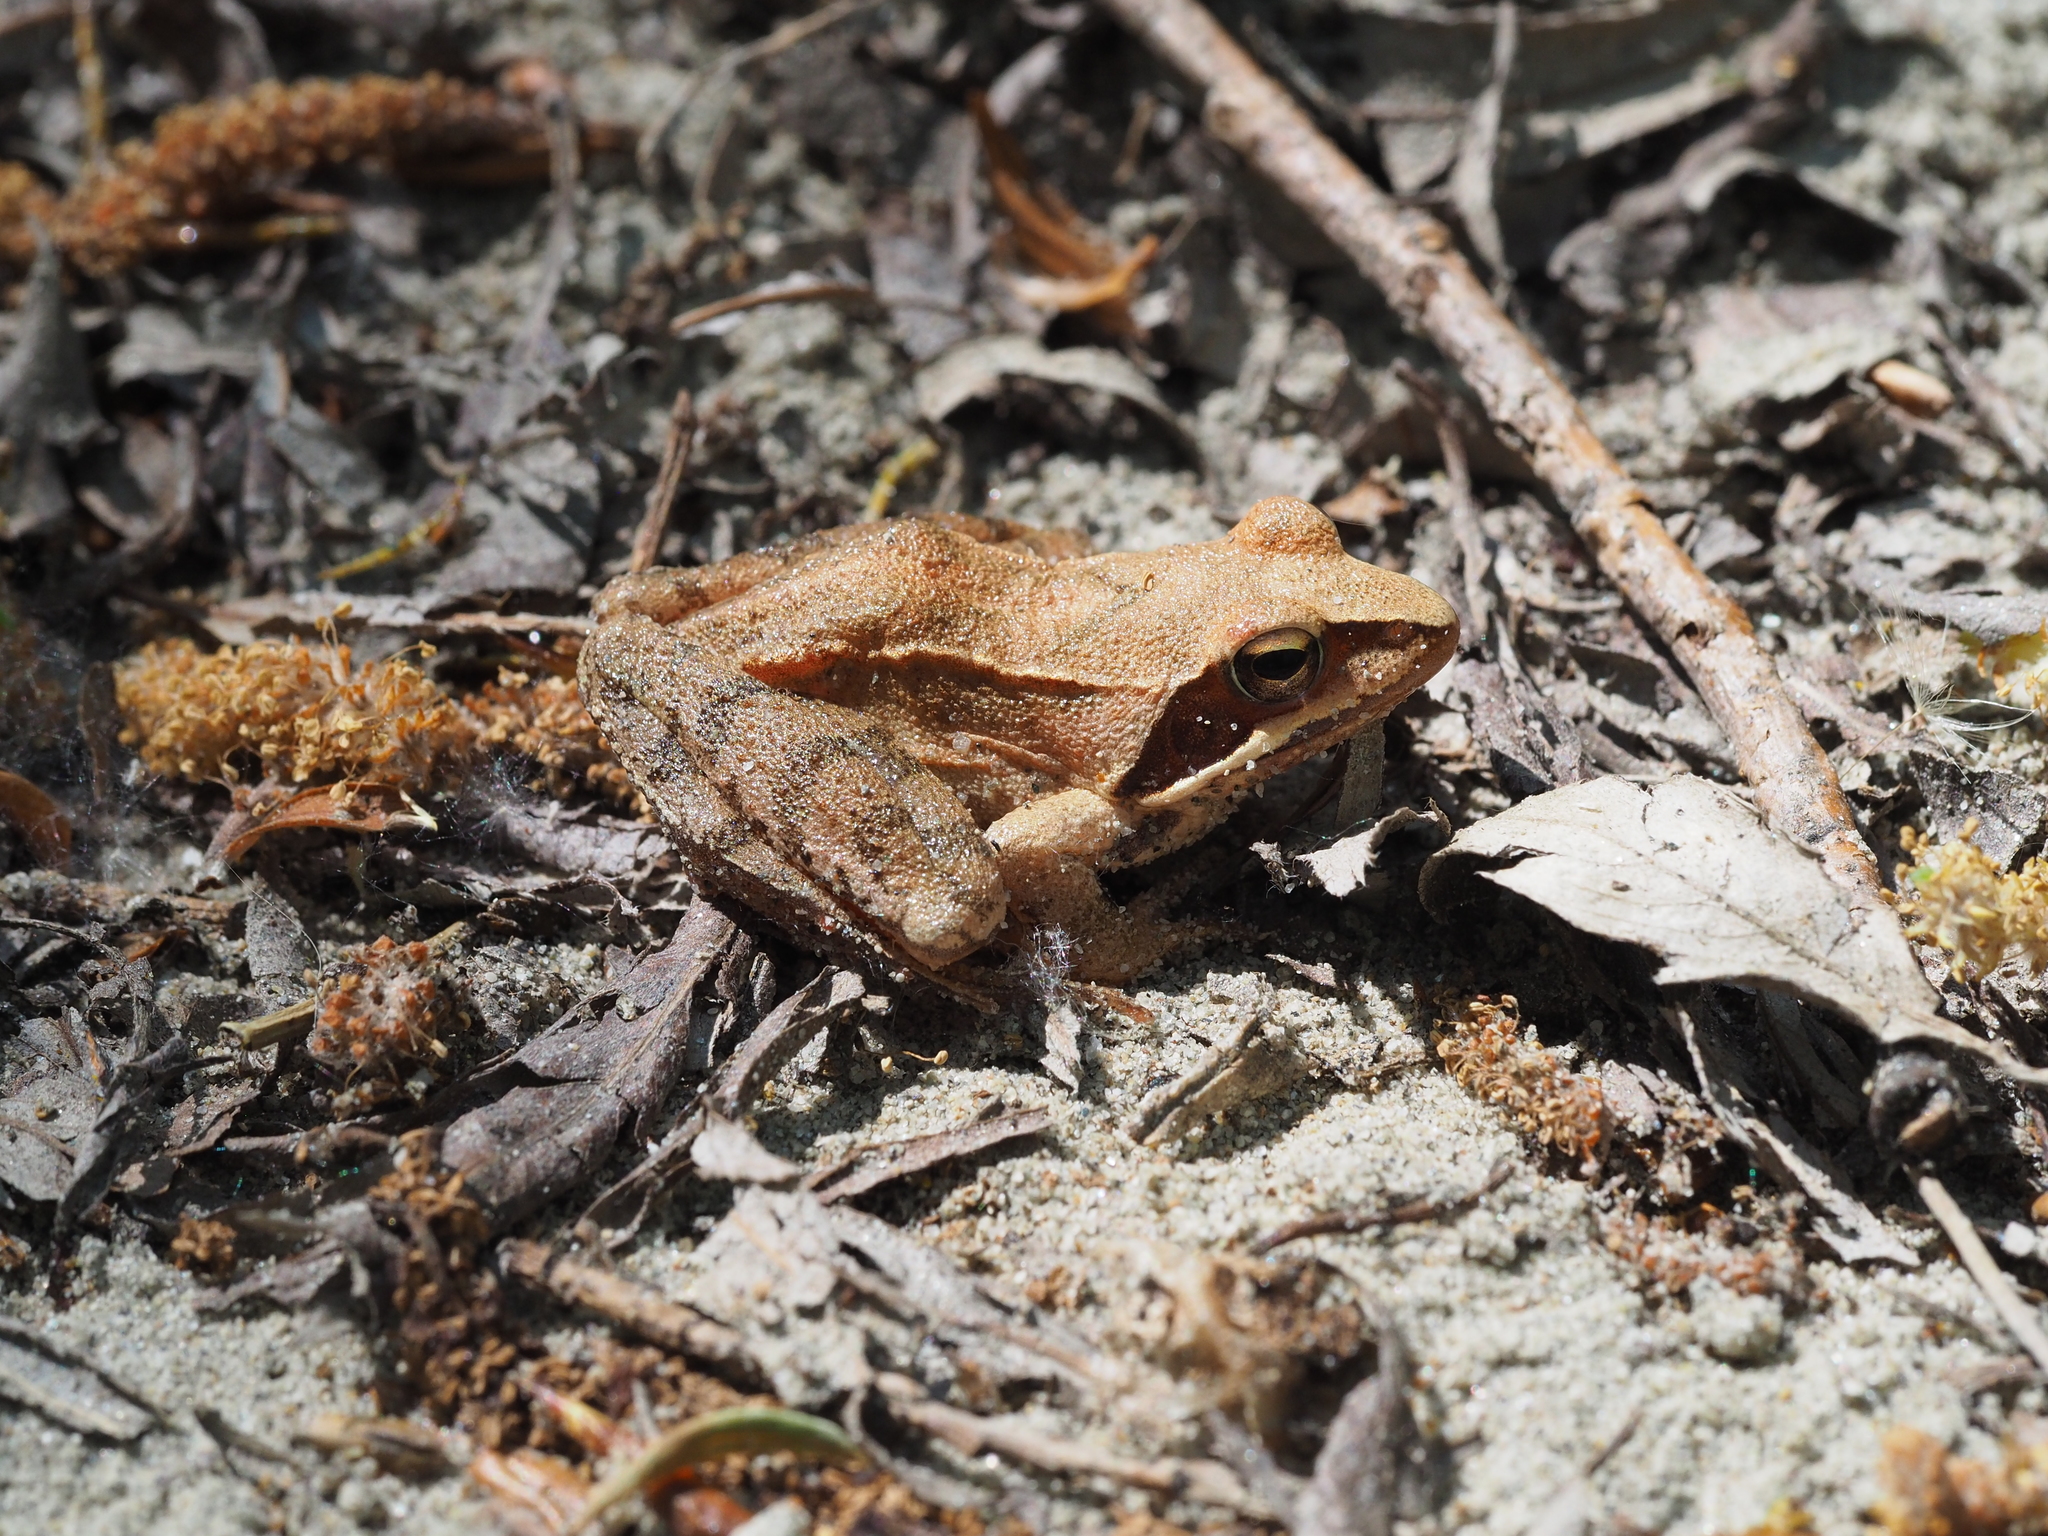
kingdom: Animalia
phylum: Chordata
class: Amphibia
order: Anura
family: Ranidae
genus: Rana
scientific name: Rana dalmatina
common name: Agile frog
